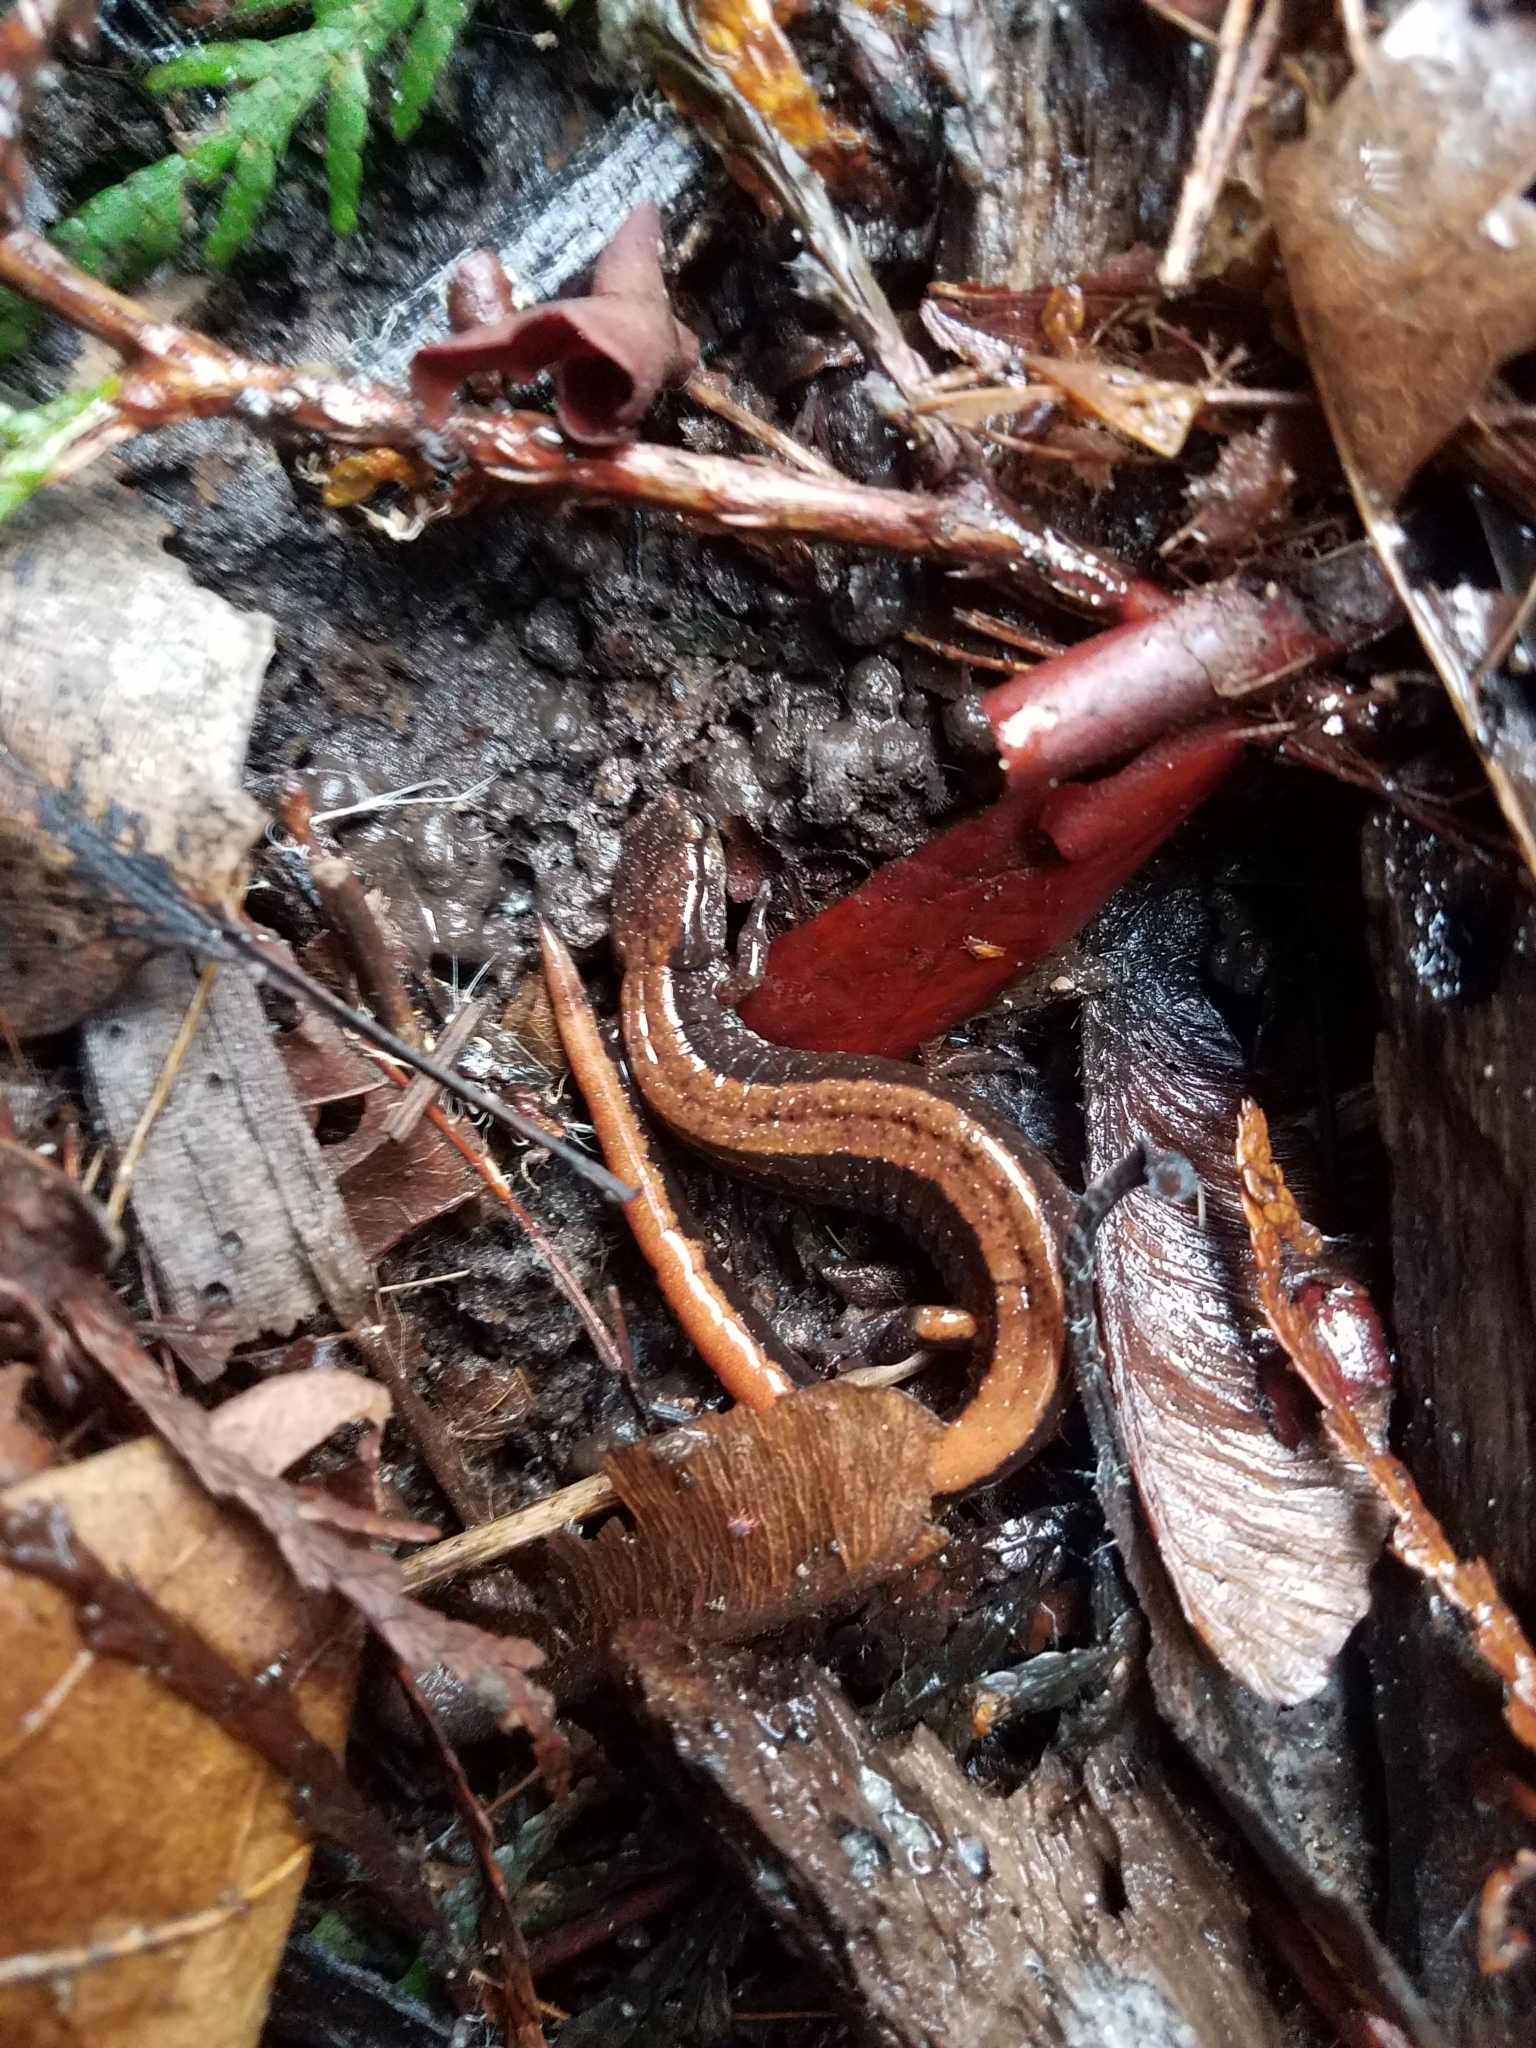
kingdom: Animalia
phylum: Chordata
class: Amphibia
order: Caudata
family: Plethodontidae
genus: Plethodon
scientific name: Plethodon vehiculum
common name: Western red-backed salamander
